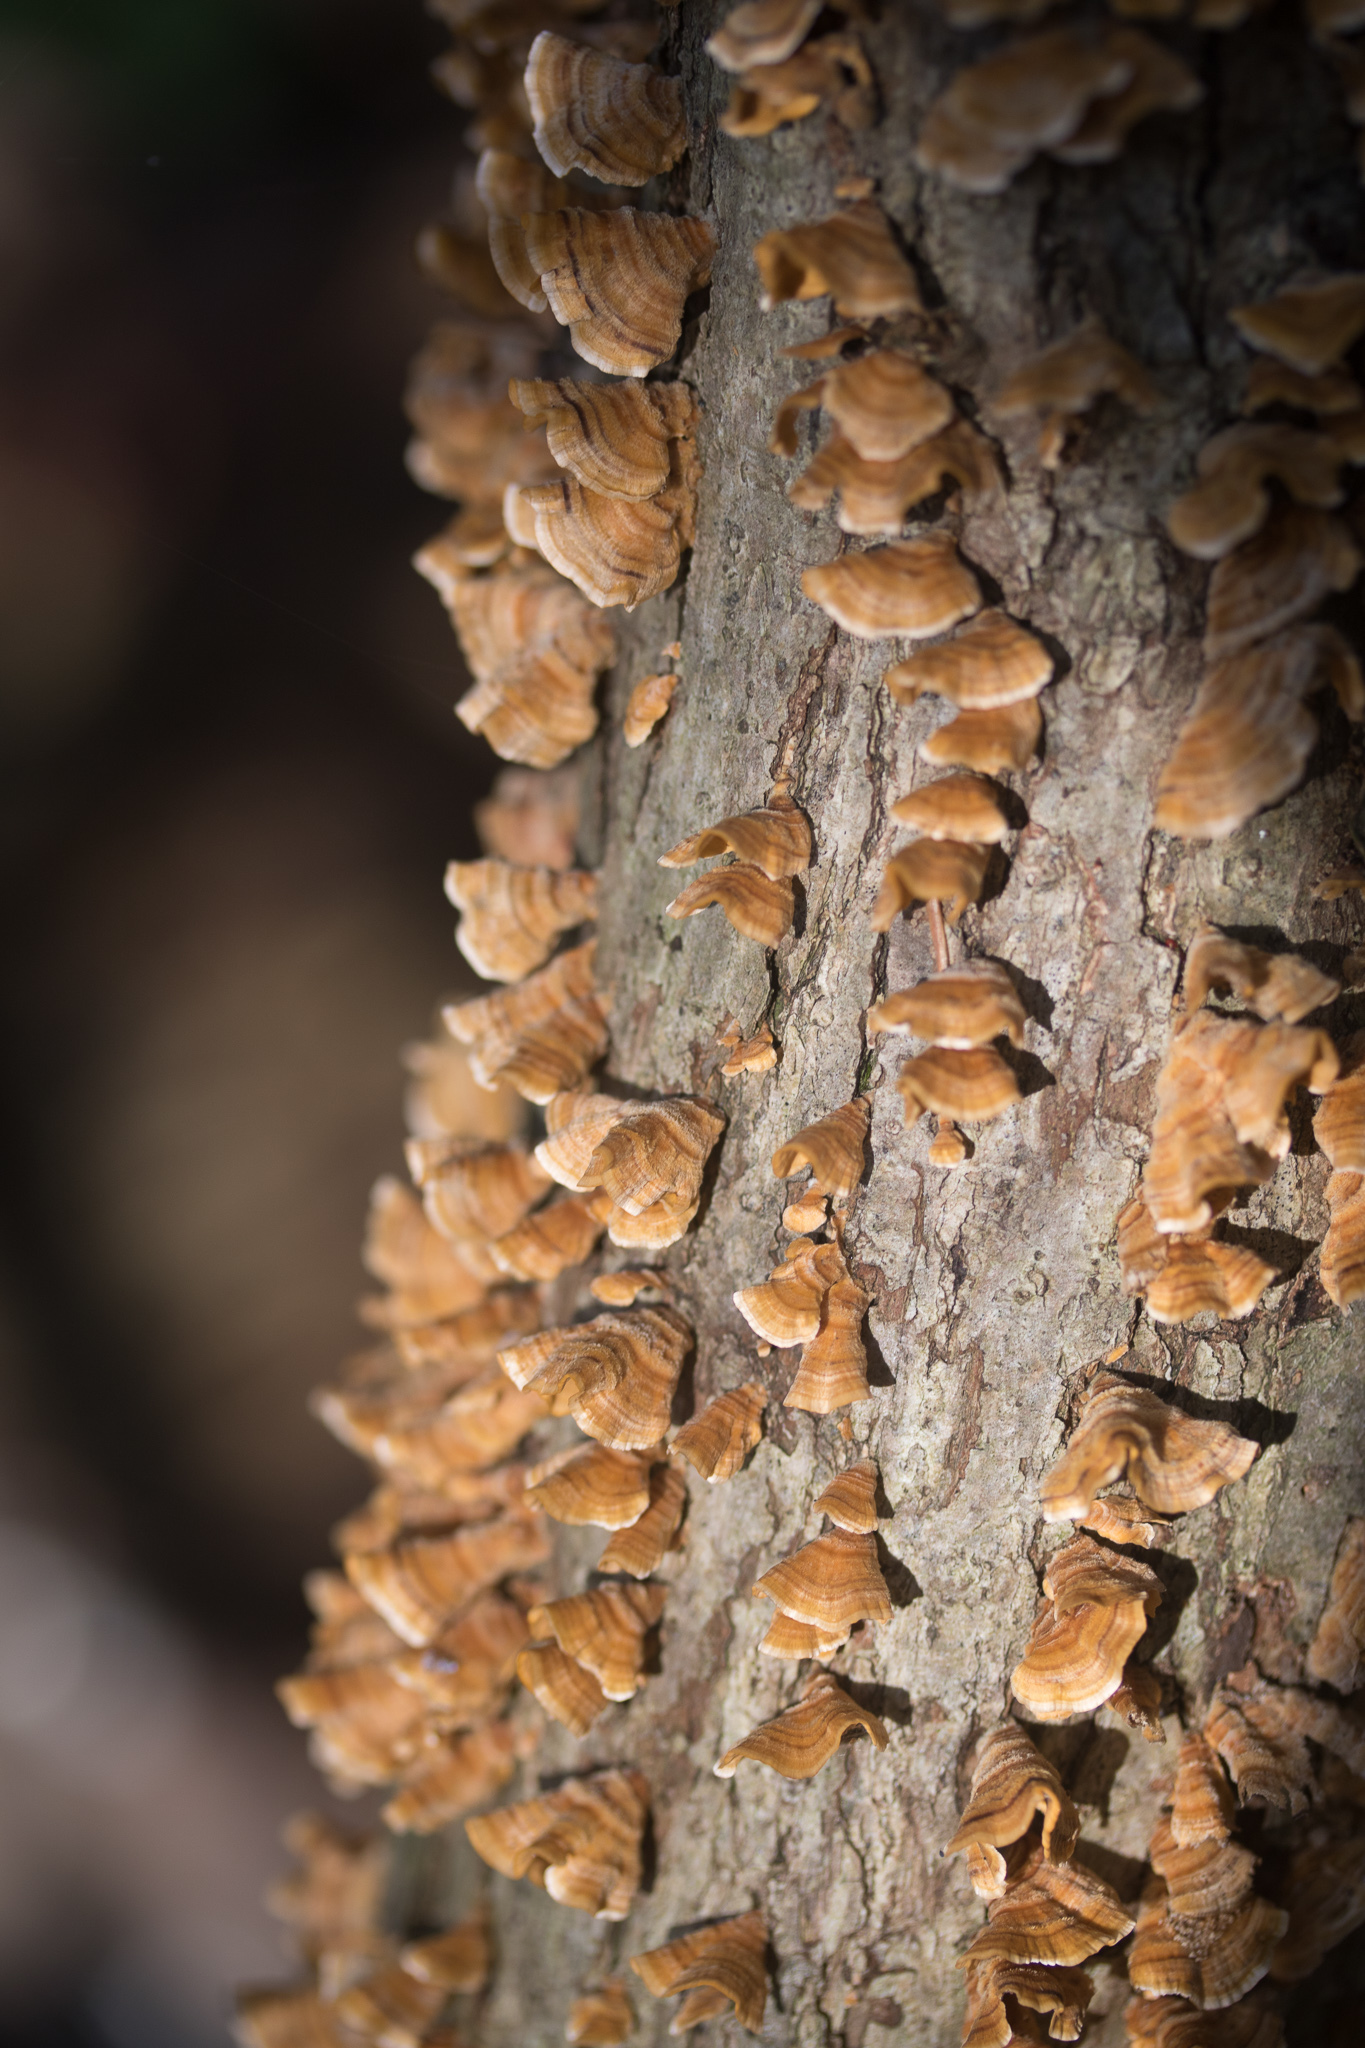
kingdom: Fungi
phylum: Basidiomycota
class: Agaricomycetes
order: Russulales
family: Stereaceae
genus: Stereum
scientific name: Stereum complicatum
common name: Crowded parchment
